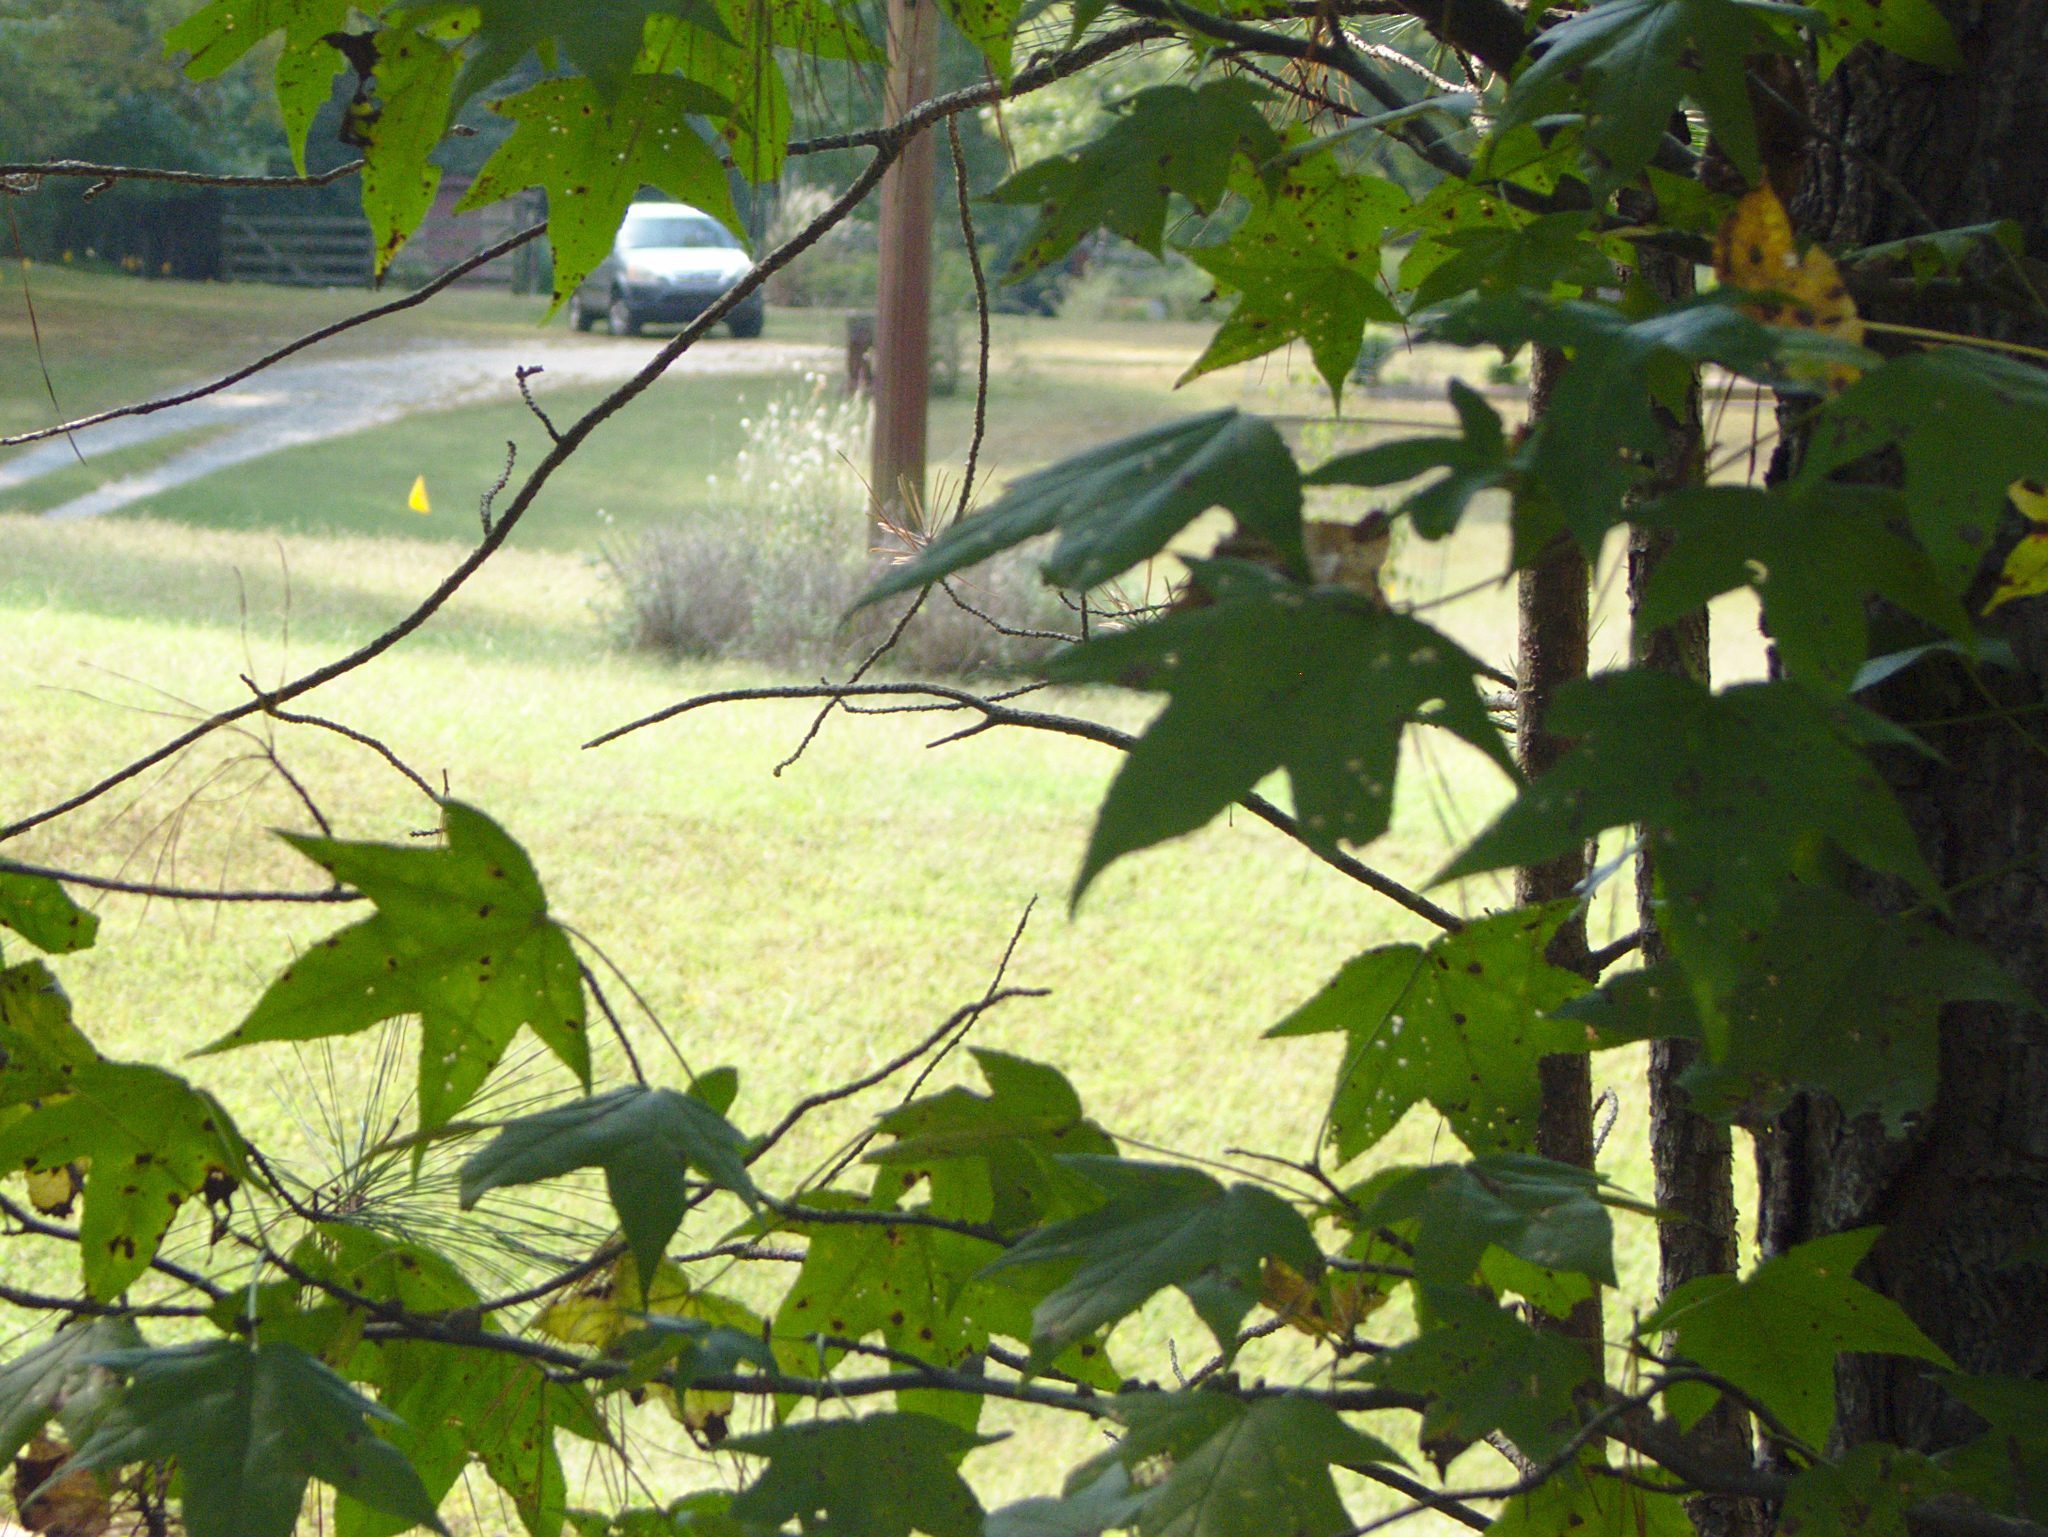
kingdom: Plantae
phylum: Tracheophyta
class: Magnoliopsida
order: Saxifragales
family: Altingiaceae
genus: Liquidambar
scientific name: Liquidambar styraciflua
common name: Sweet gum
